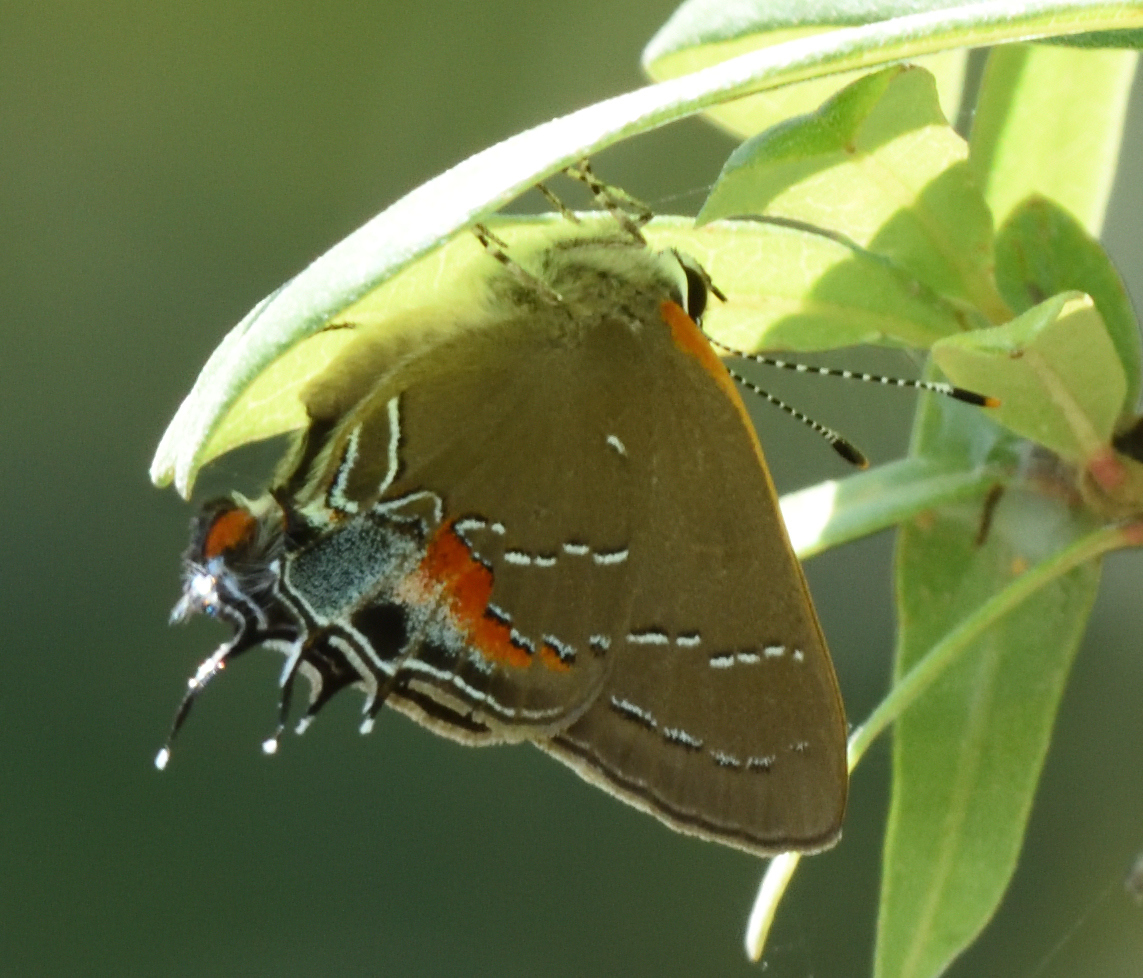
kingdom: Animalia
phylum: Arthropoda
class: Insecta
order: Lepidoptera
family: Lycaenidae
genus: Fixsenia
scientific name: Fixsenia favonius
